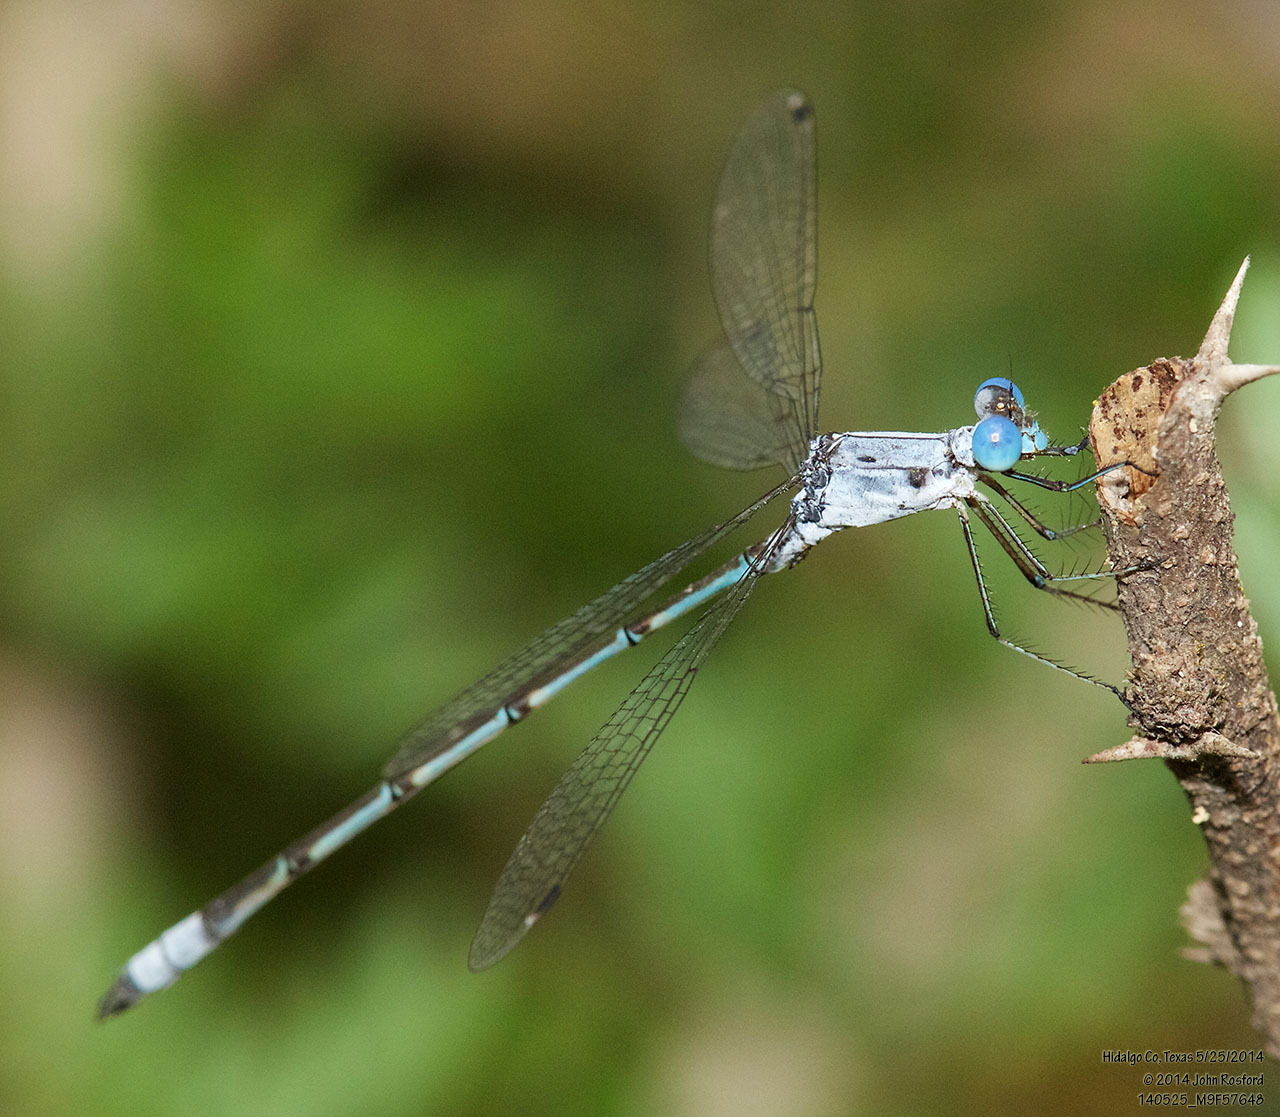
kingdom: Animalia
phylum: Arthropoda
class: Insecta
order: Odonata
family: Lestidae
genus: Lestes
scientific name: Lestes sigma
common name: Chalky spreadwing
